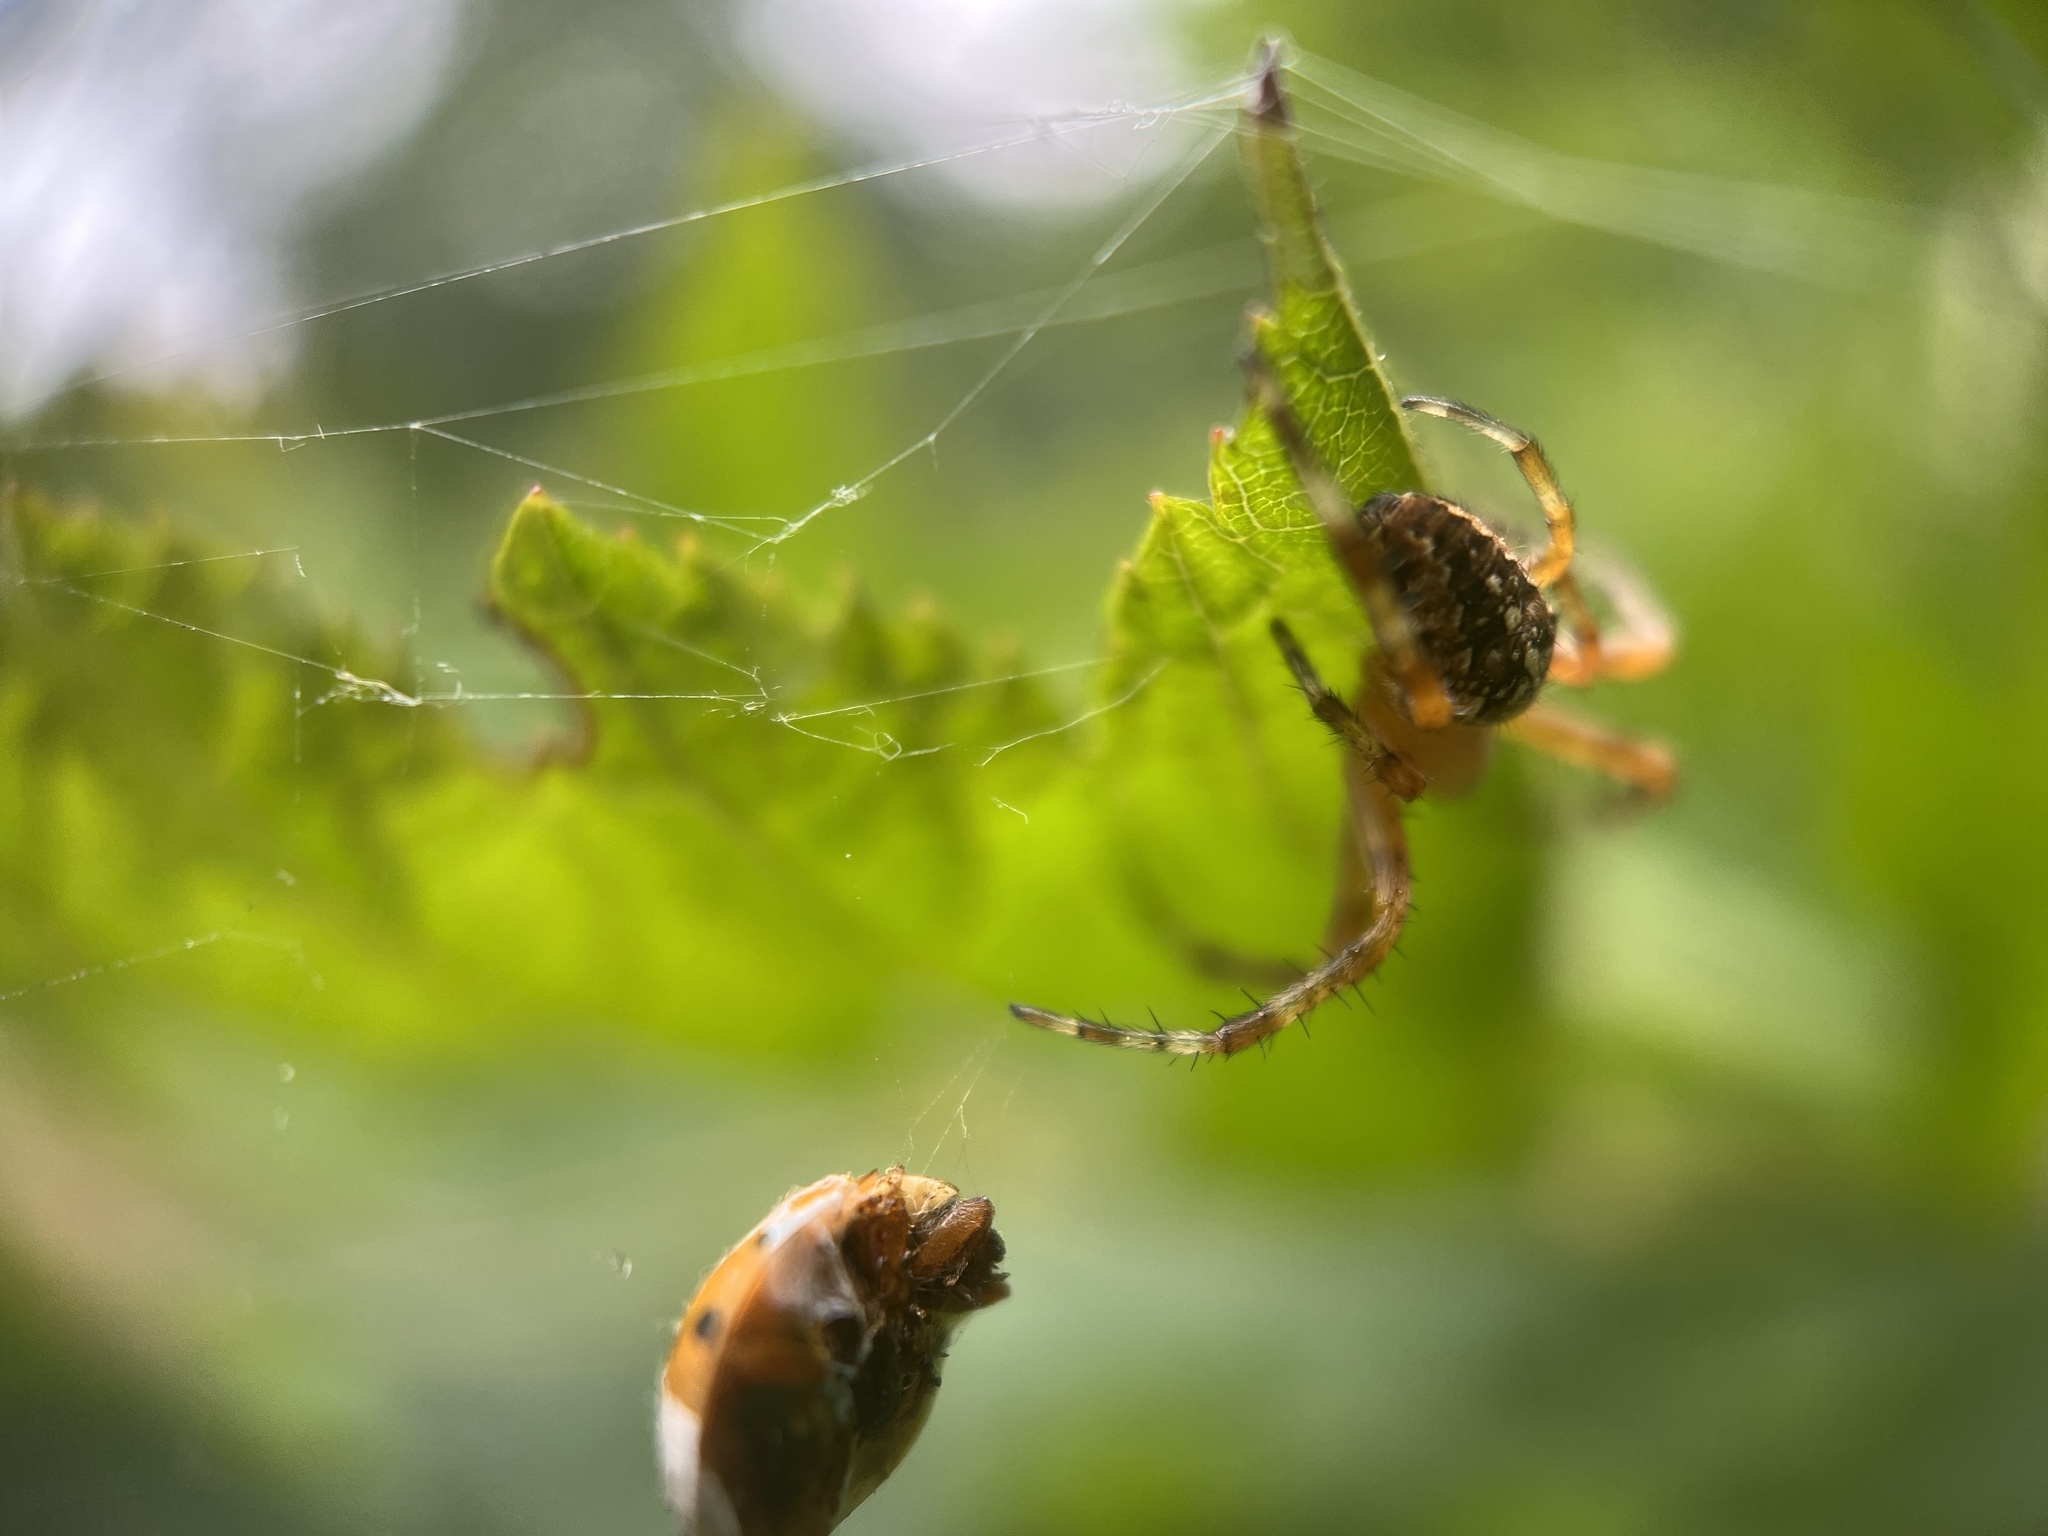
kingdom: Animalia
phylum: Arthropoda
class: Arachnida
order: Araneae
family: Araneidae
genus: Araneus
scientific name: Araneus diadematus
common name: Cross orbweaver
